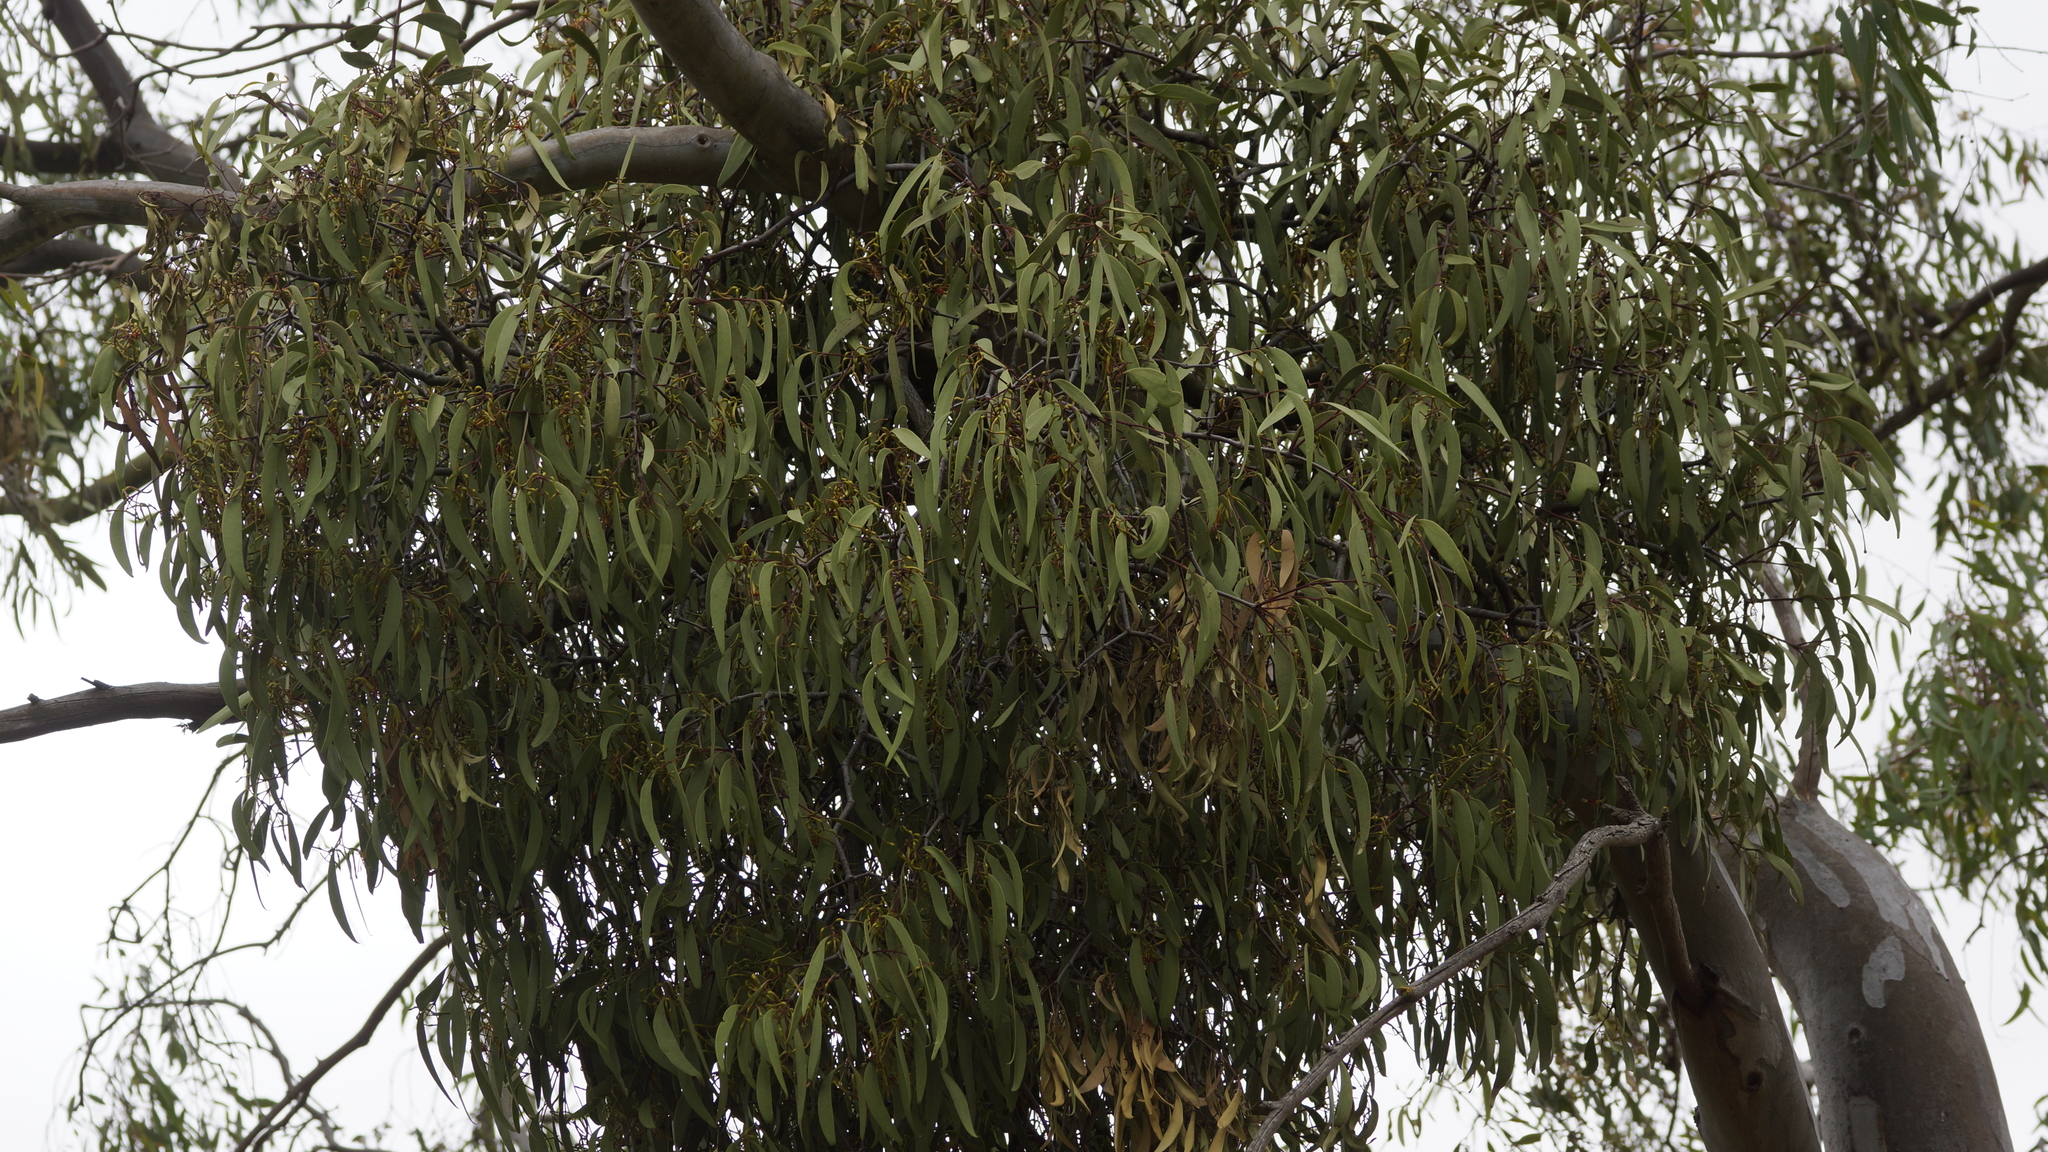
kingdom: Plantae
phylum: Tracheophyta
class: Magnoliopsida
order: Santalales
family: Loranthaceae
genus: Muellerina
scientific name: Muellerina eucalyptoides
